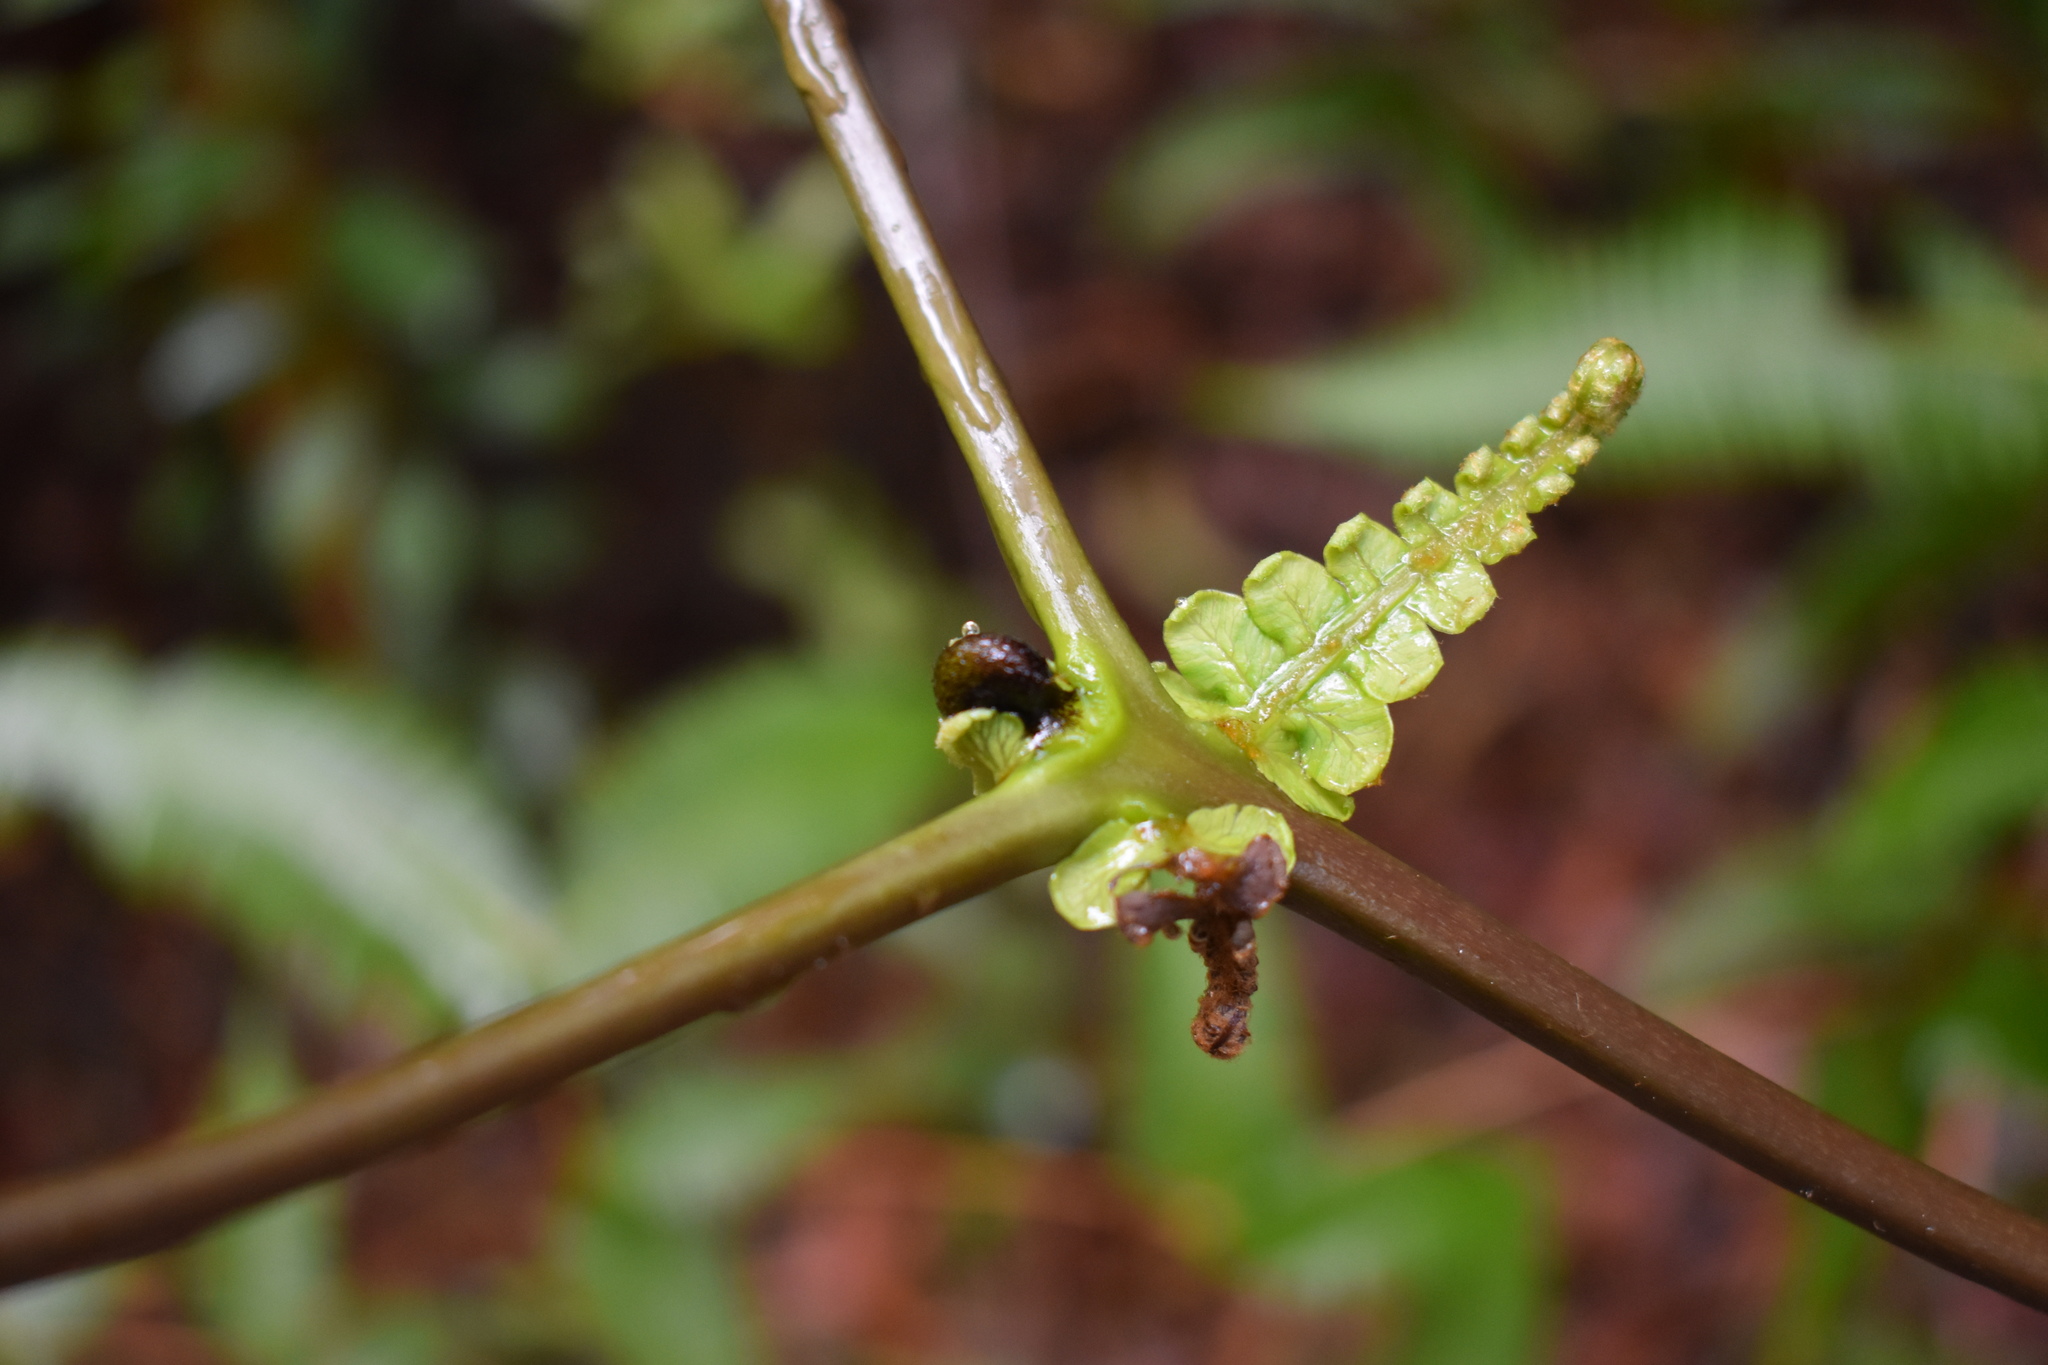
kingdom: Plantae
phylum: Tracheophyta
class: Polypodiopsida
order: Gleicheniales
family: Gleicheniaceae
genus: Dicranopteris
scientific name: Dicranopteris linearis
